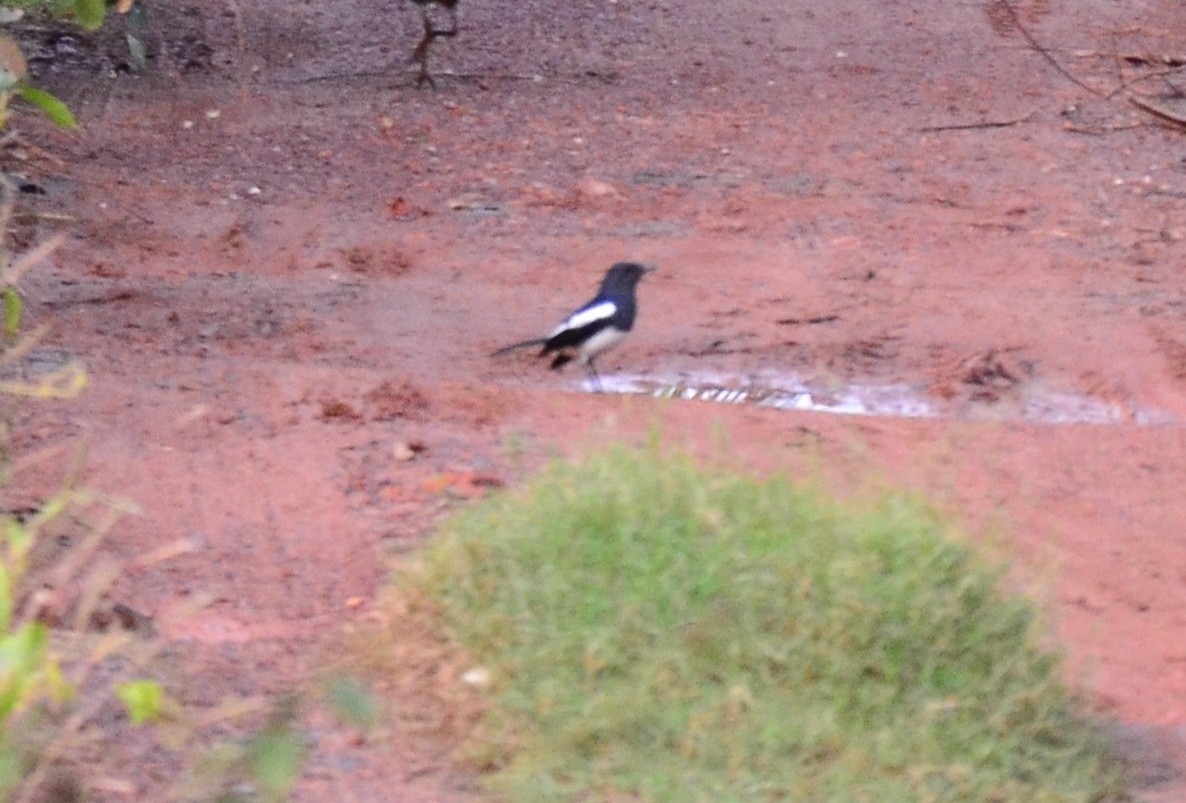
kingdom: Animalia
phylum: Chordata
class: Aves
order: Passeriformes
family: Muscicapidae
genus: Copsychus
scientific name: Copsychus saularis
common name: Oriental magpie-robin
